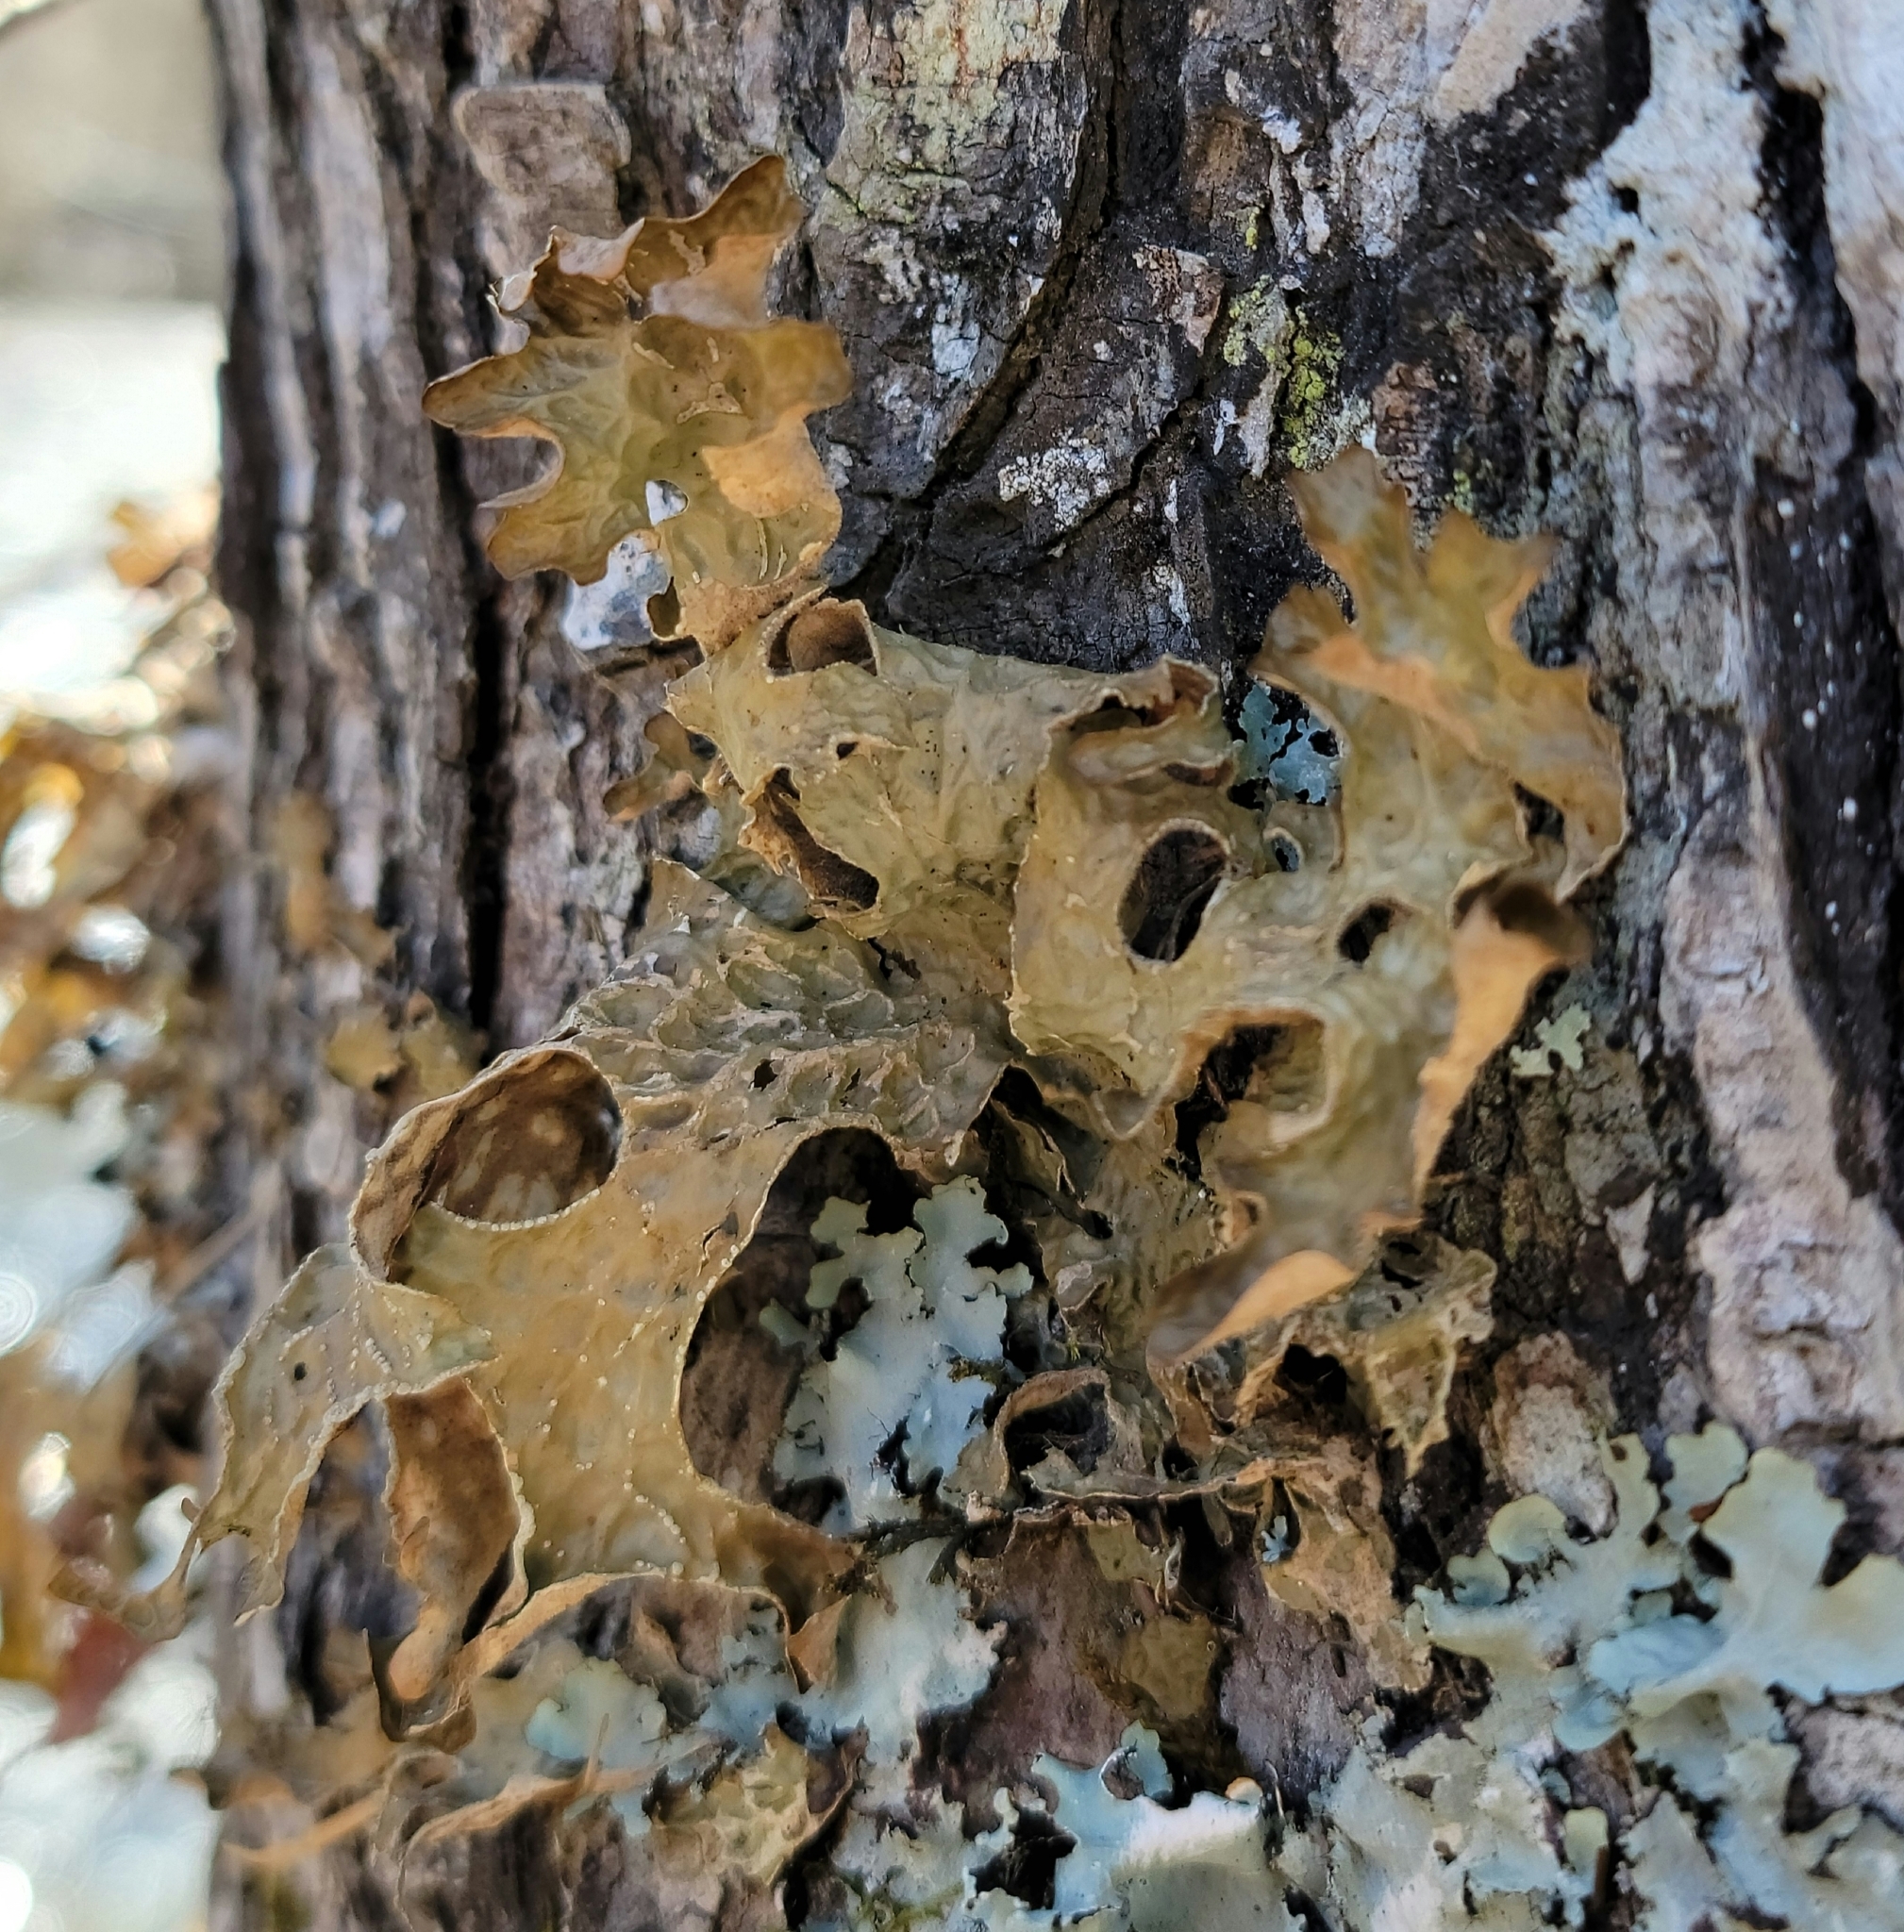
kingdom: Fungi
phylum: Ascomycota
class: Lecanoromycetes
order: Peltigerales
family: Lobariaceae
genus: Lobaria
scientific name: Lobaria pulmonaria
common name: Lungwort
